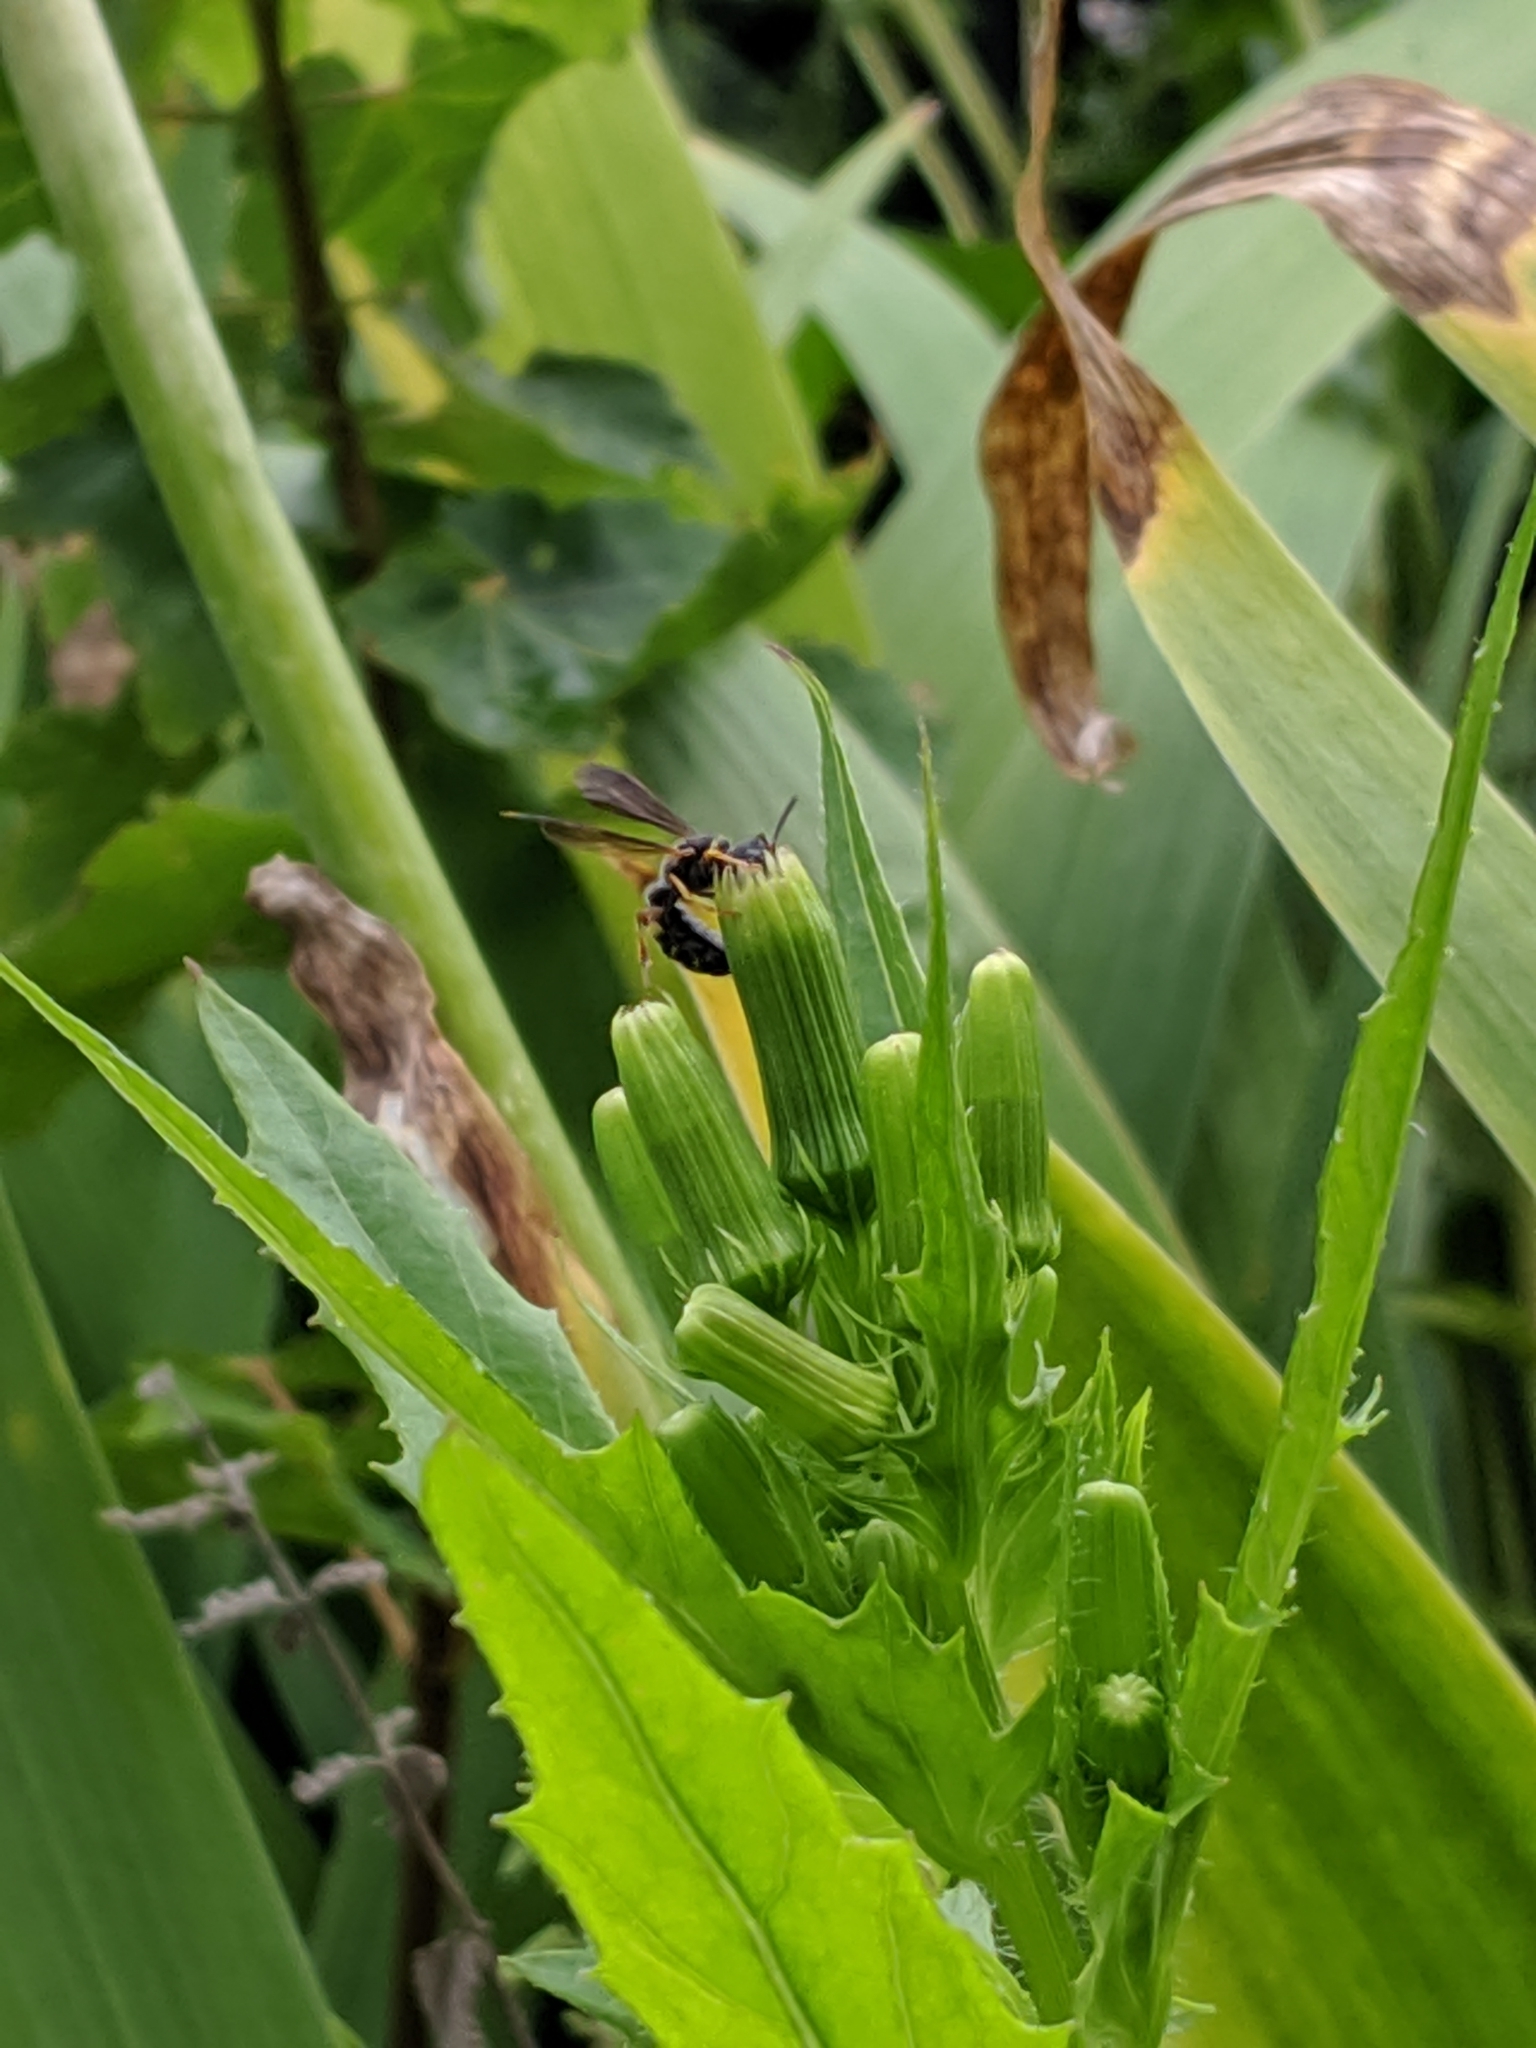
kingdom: Animalia
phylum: Arthropoda
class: Insecta
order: Hymenoptera
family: Crabronidae
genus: Cerceris
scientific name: Cerceris
